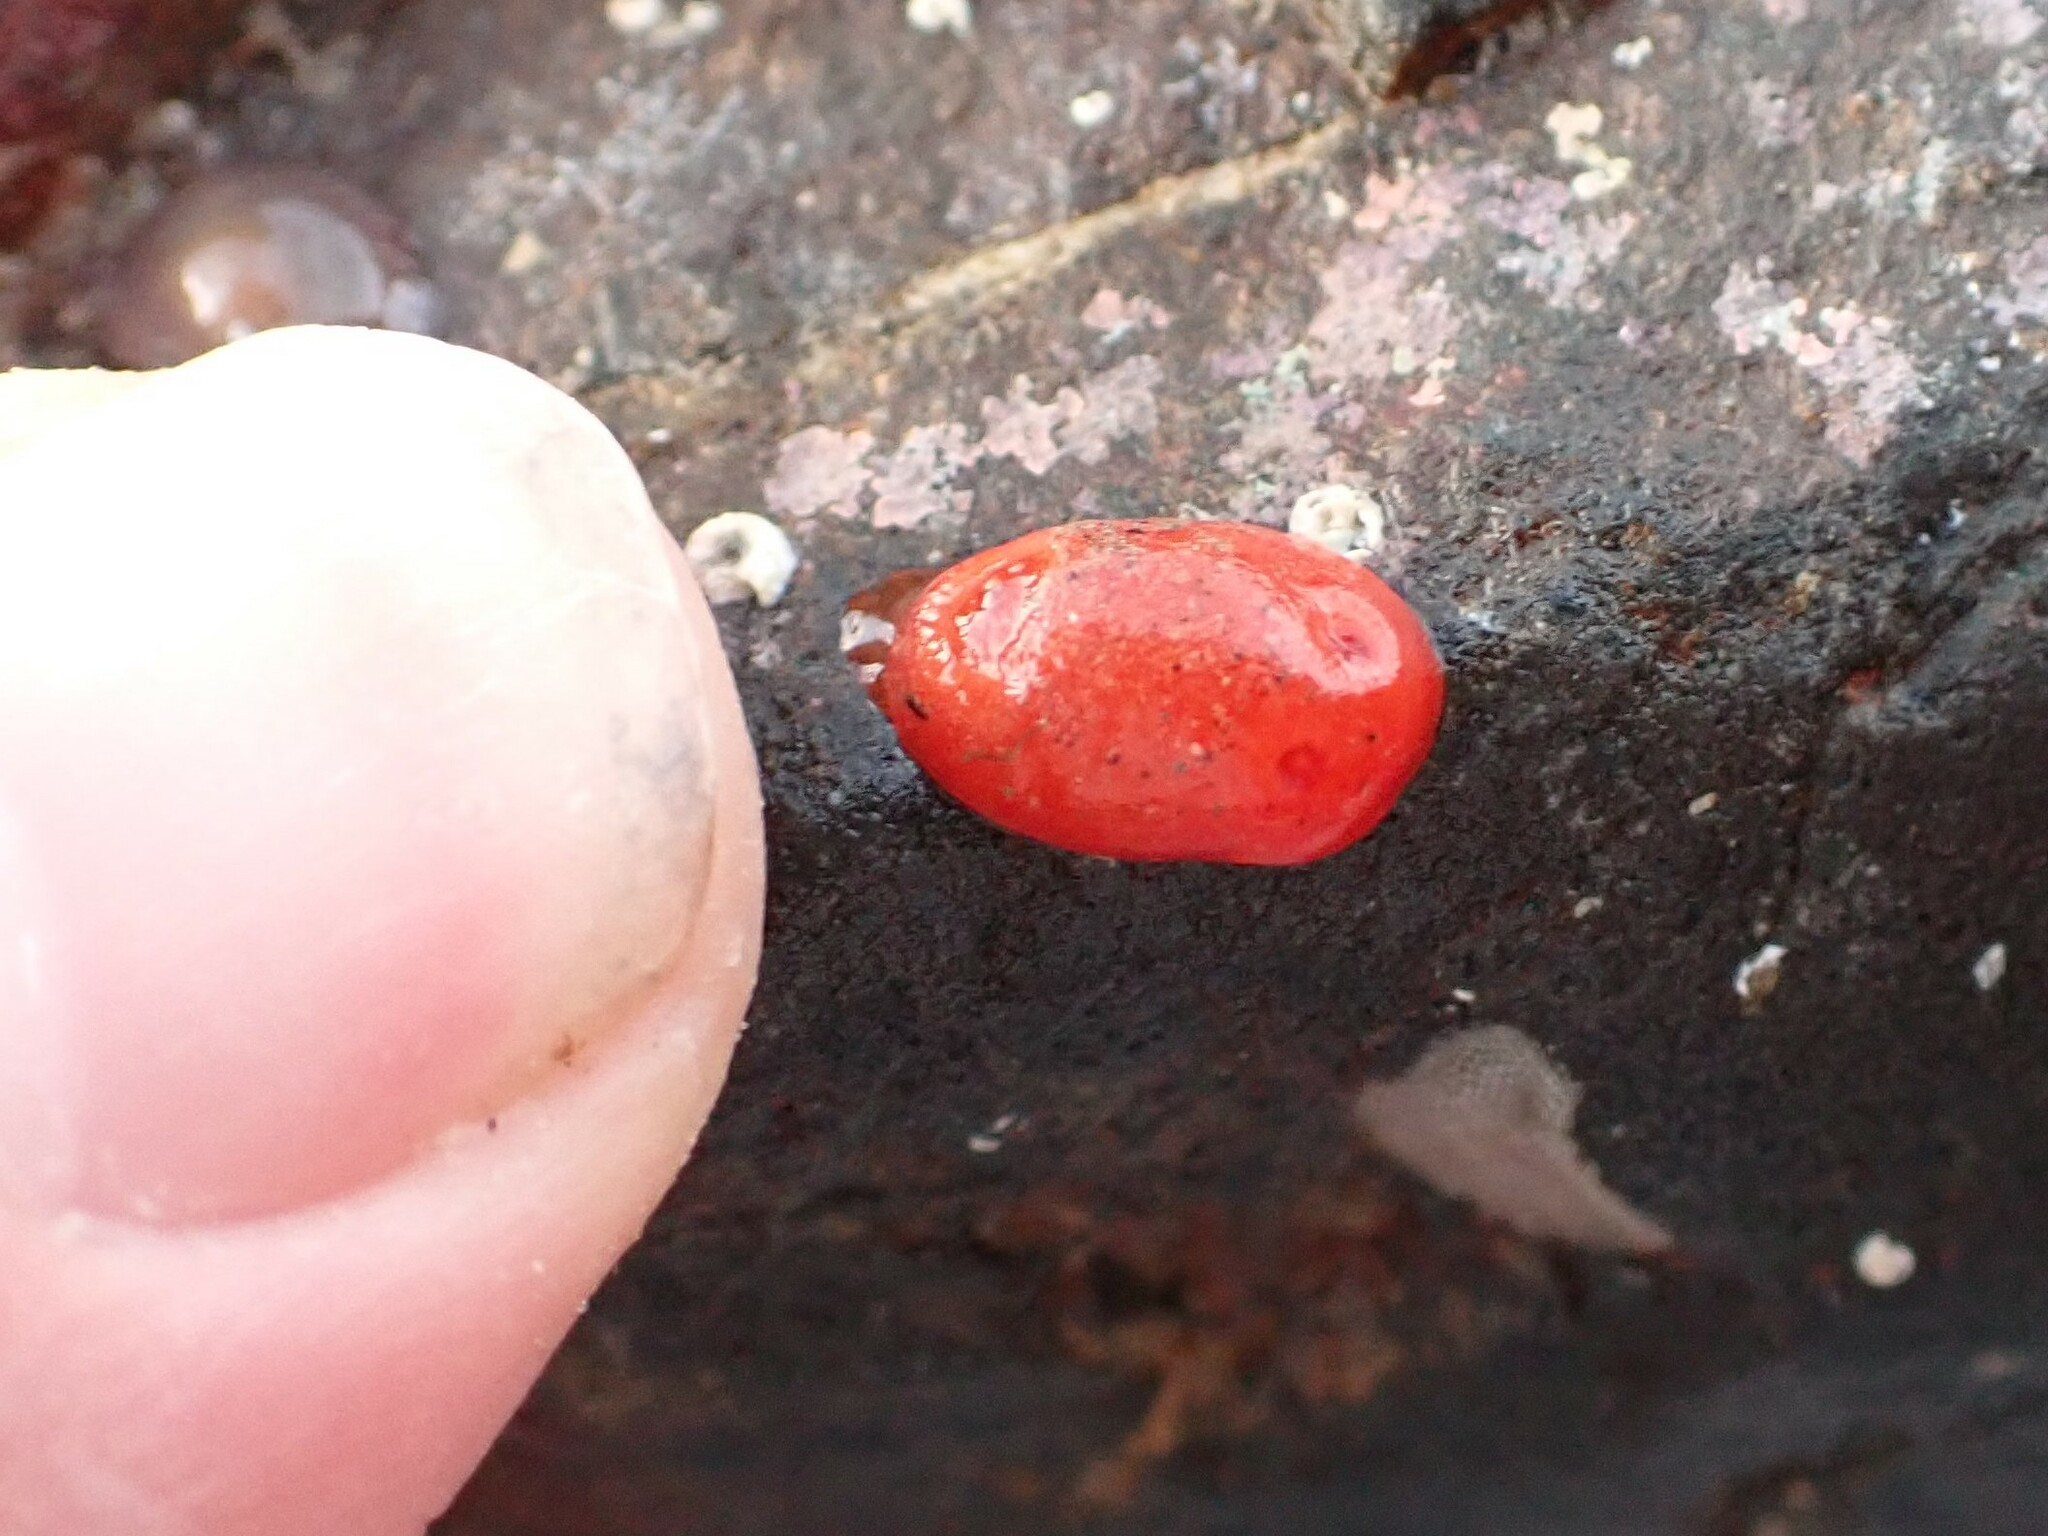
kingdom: Animalia
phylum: Mollusca
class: Gastropoda
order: Nudibranchia
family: Discodorididae
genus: Rostanga
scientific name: Rostanga pulchra
